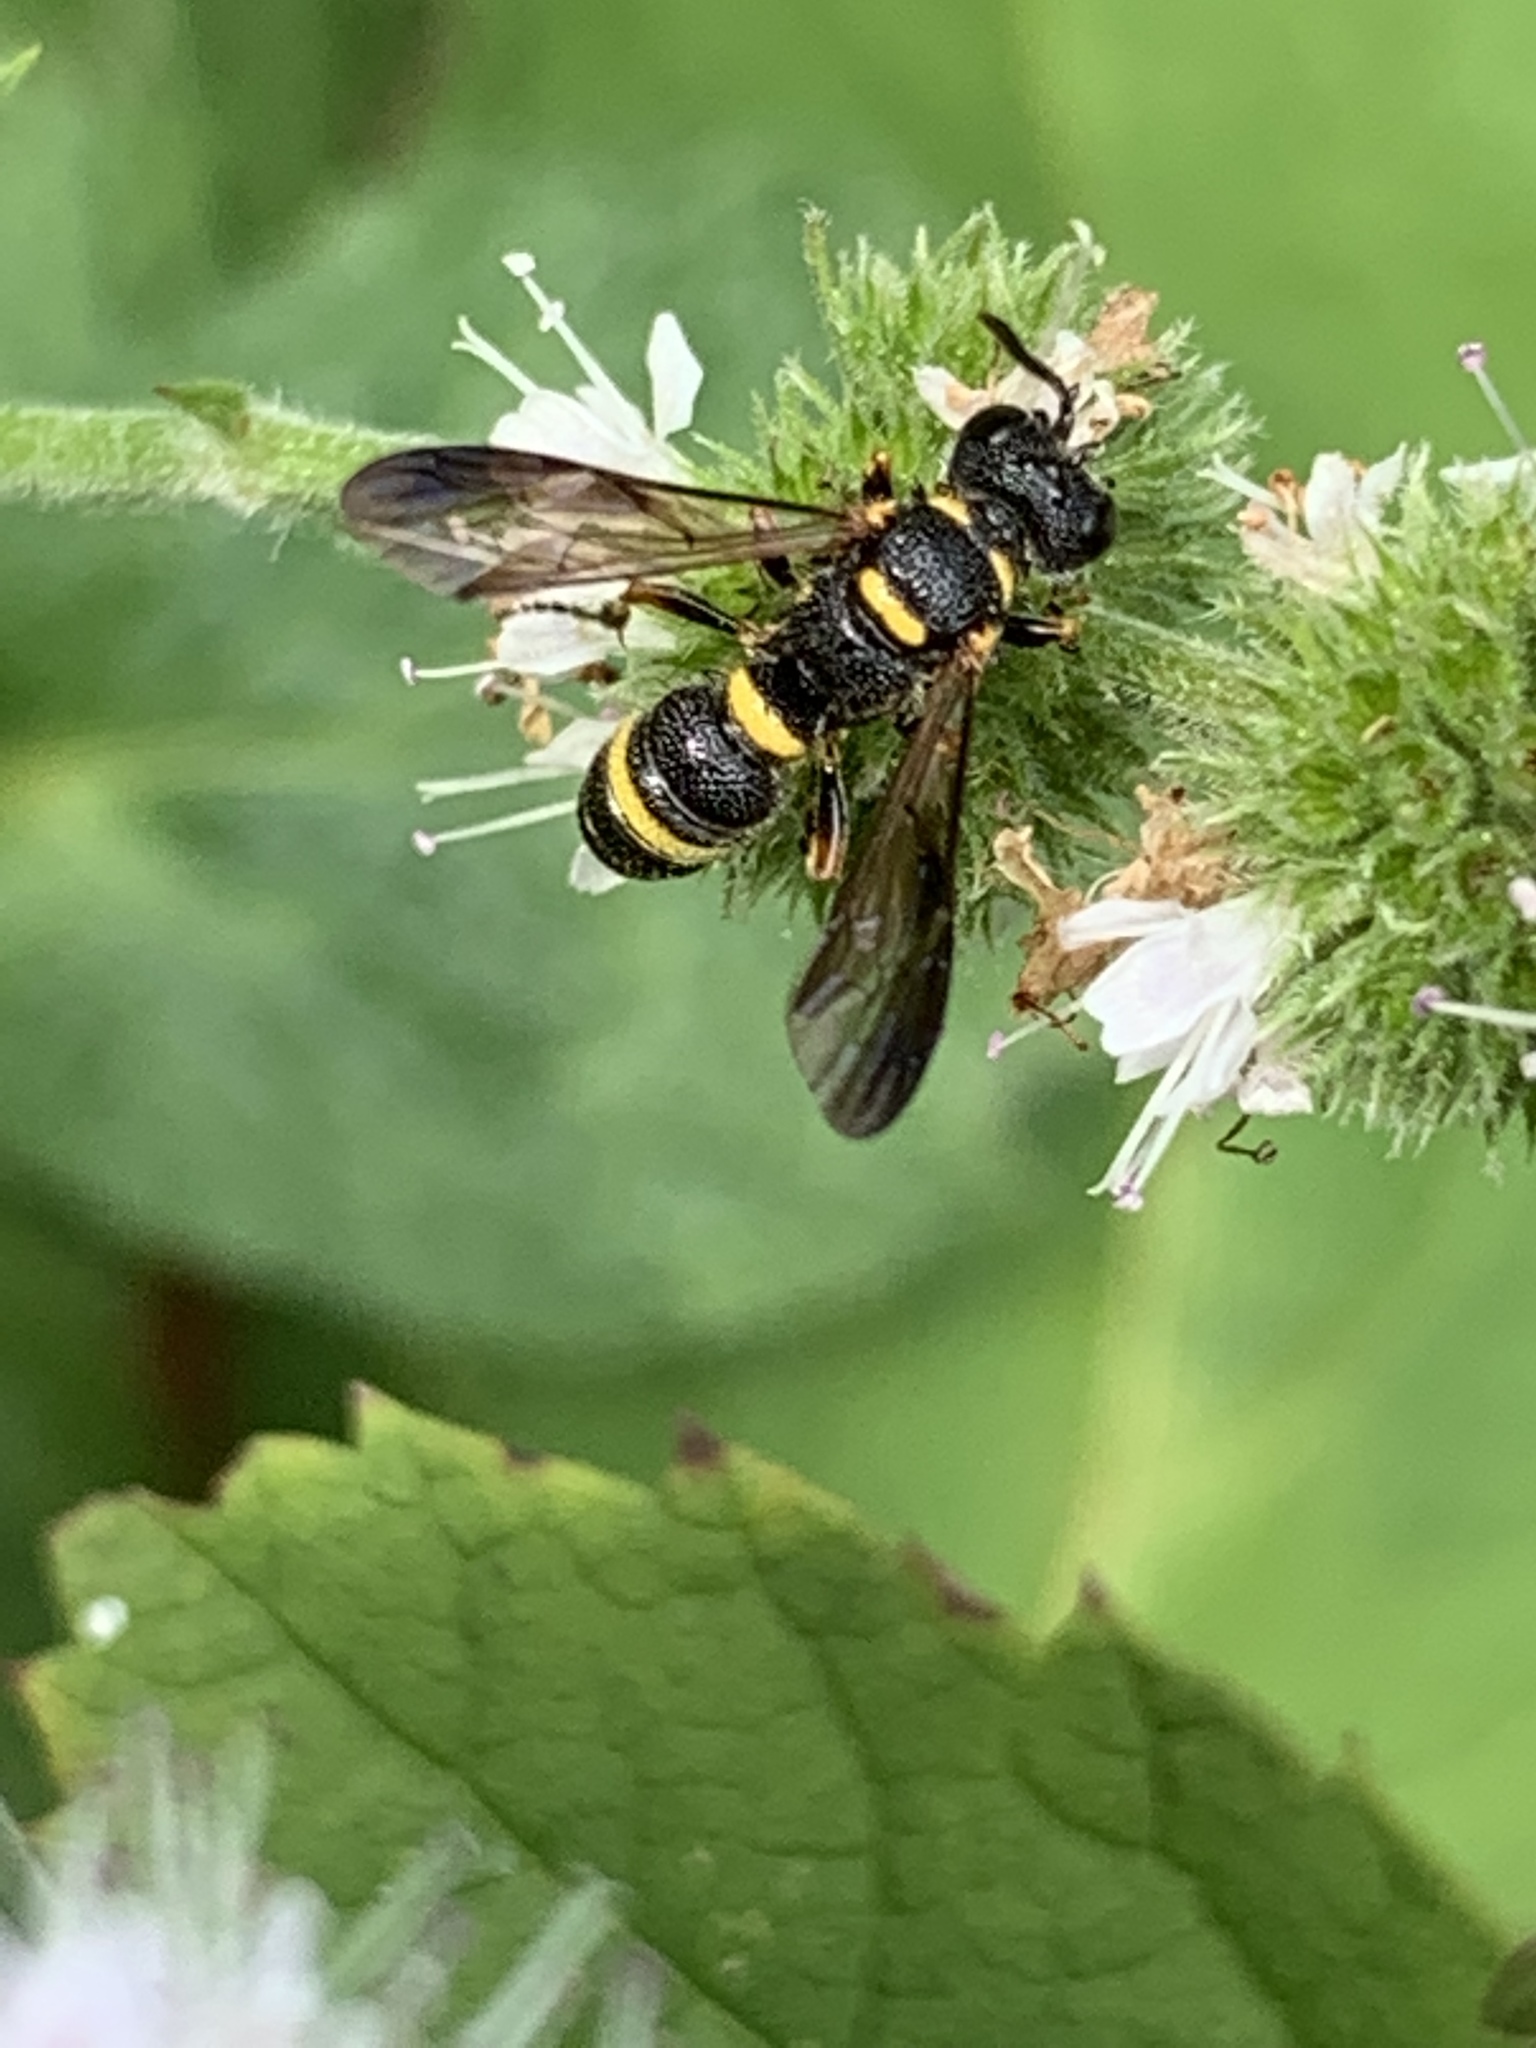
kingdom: Animalia
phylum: Arthropoda
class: Insecta
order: Hymenoptera
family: Crabronidae
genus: Cerceris
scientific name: Cerceris insolita
